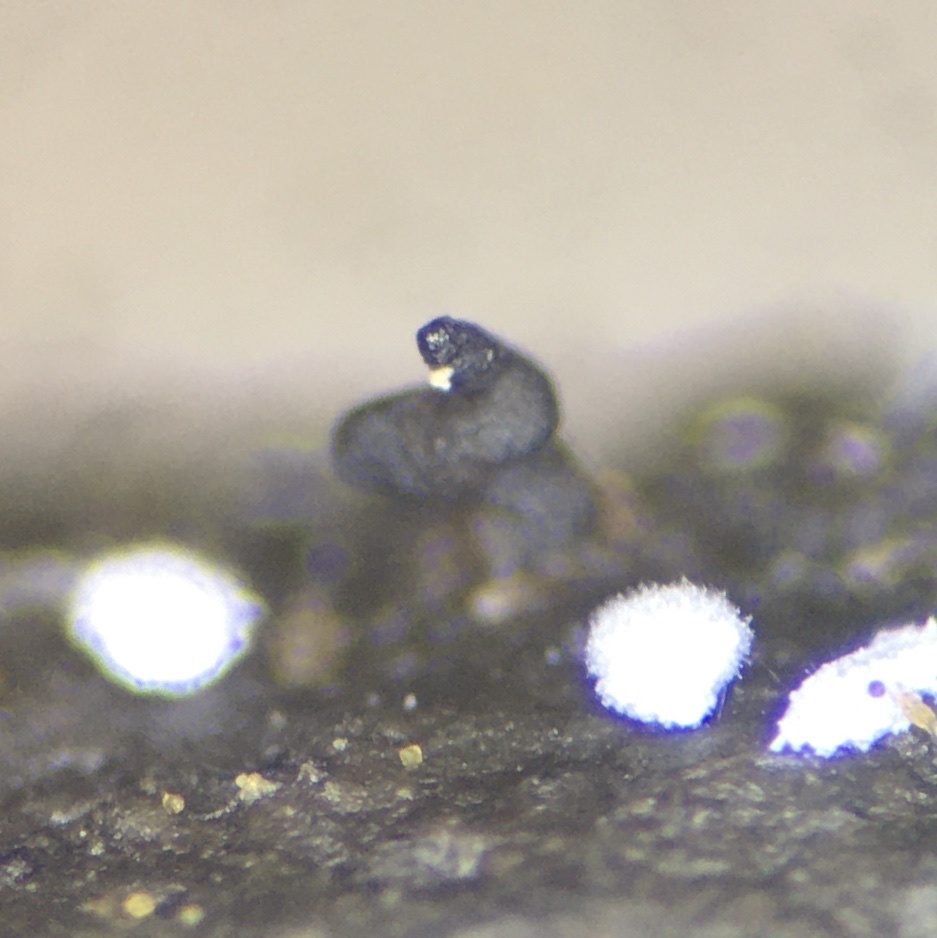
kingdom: Fungi
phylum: Ascomycota
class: Dothideomycetes
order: Pleosporales
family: Sporormiaceae
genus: Preussia
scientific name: Preussia longisporopsis
